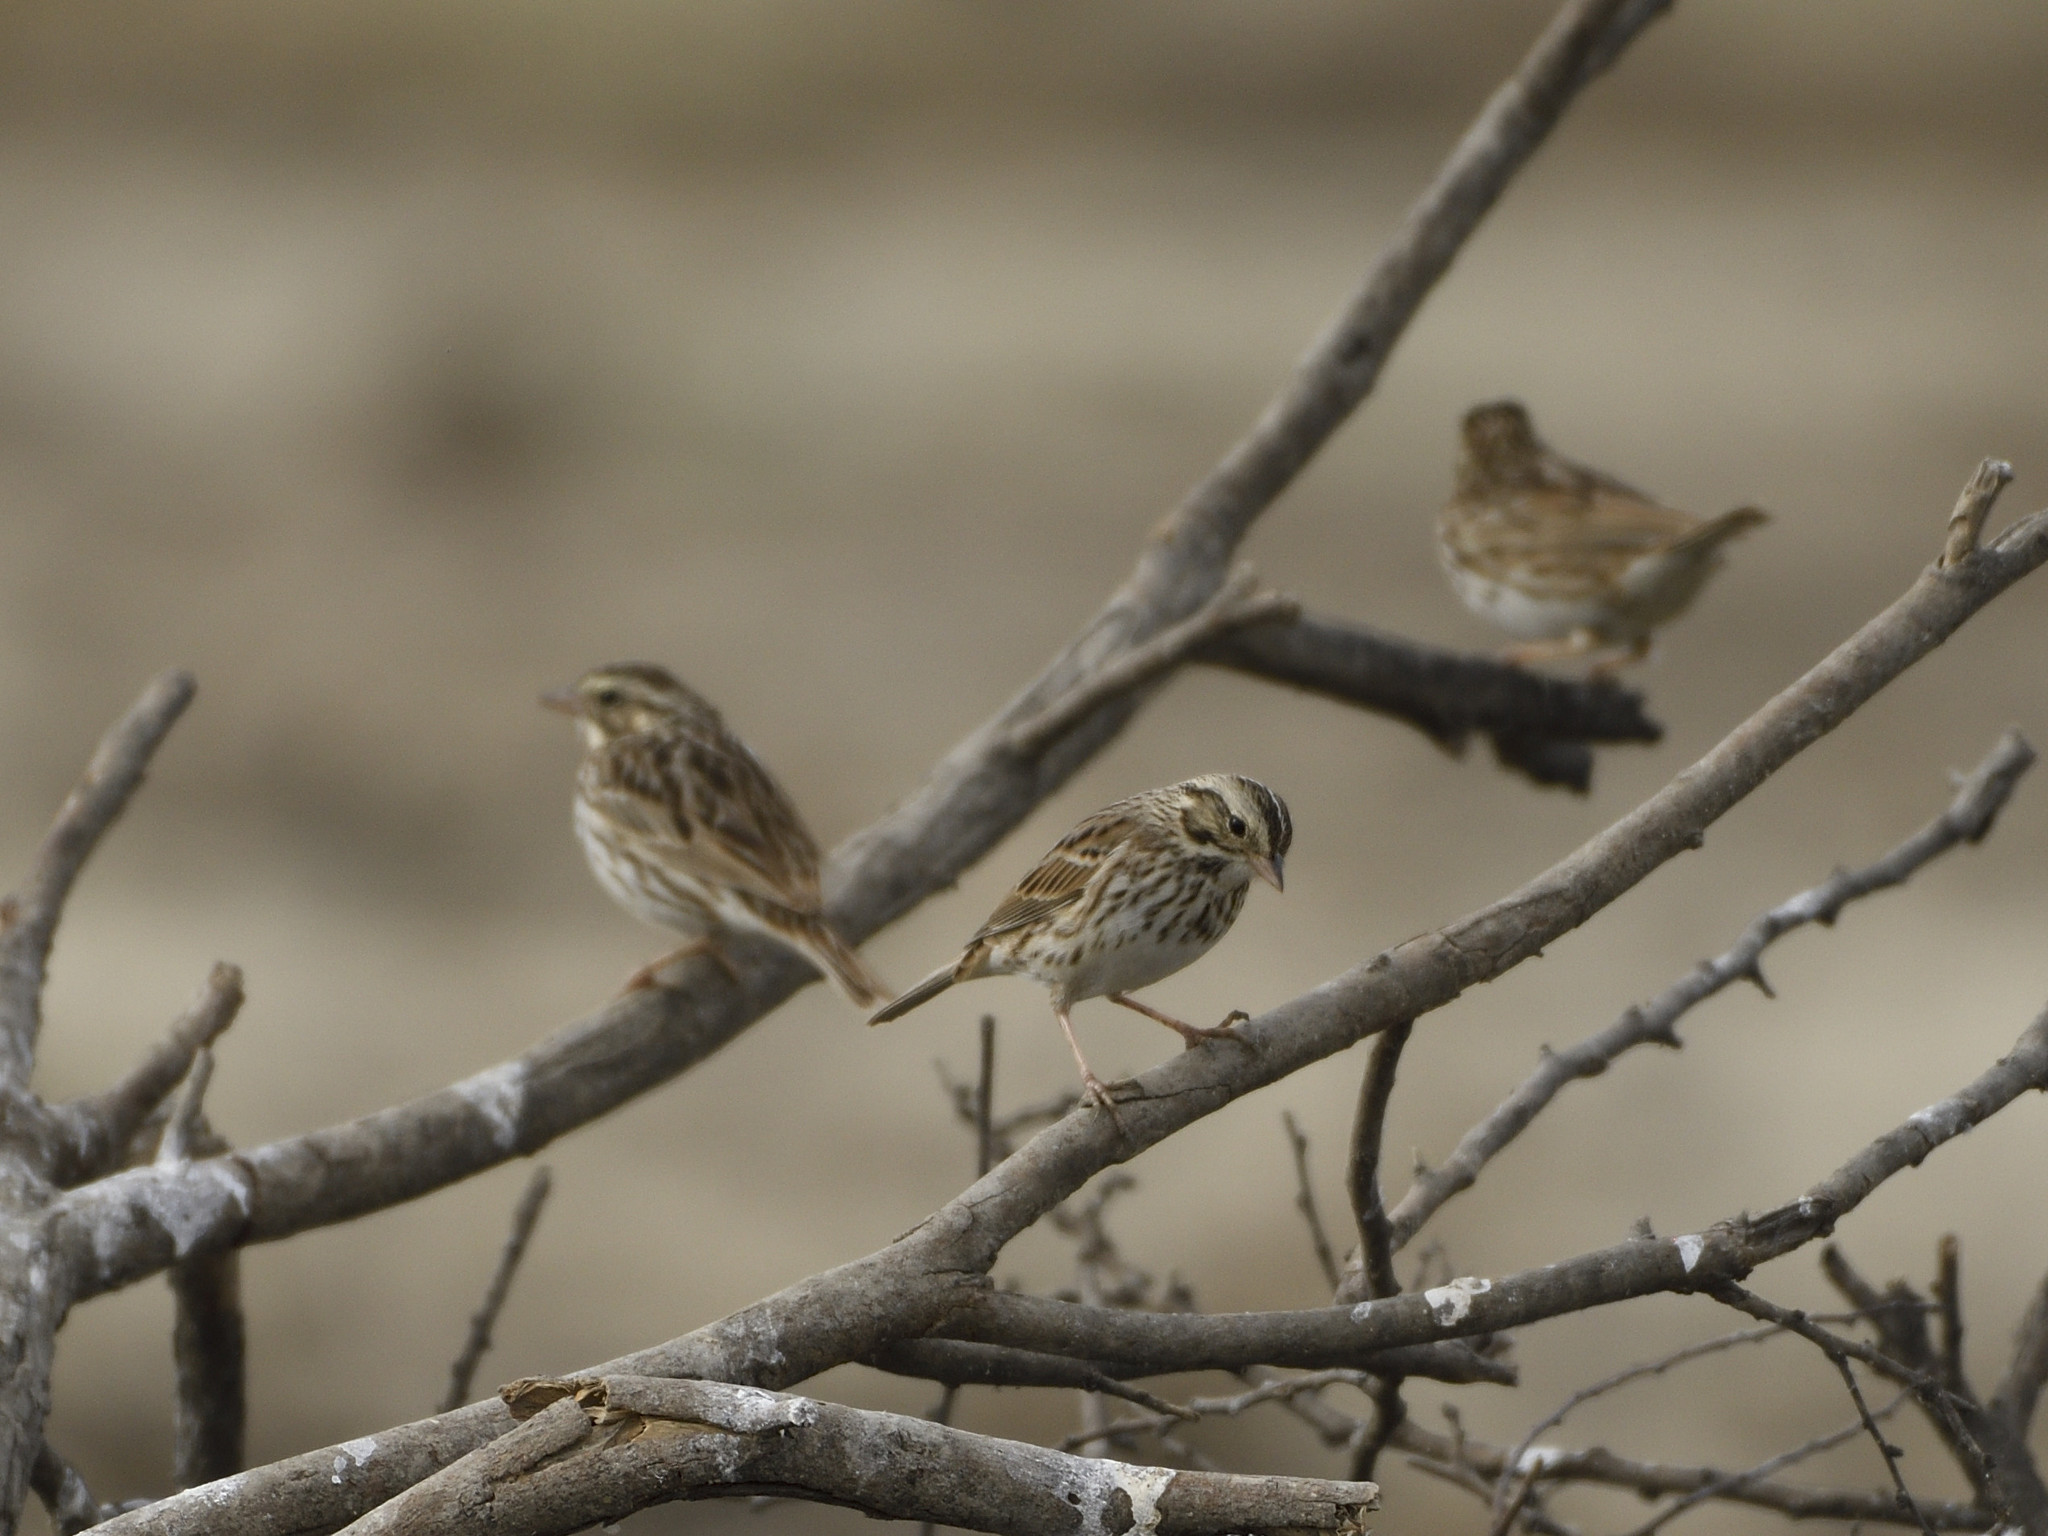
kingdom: Animalia
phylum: Chordata
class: Aves
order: Passeriformes
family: Passerellidae
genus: Passerculus
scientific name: Passerculus sandwichensis
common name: Savannah sparrow
